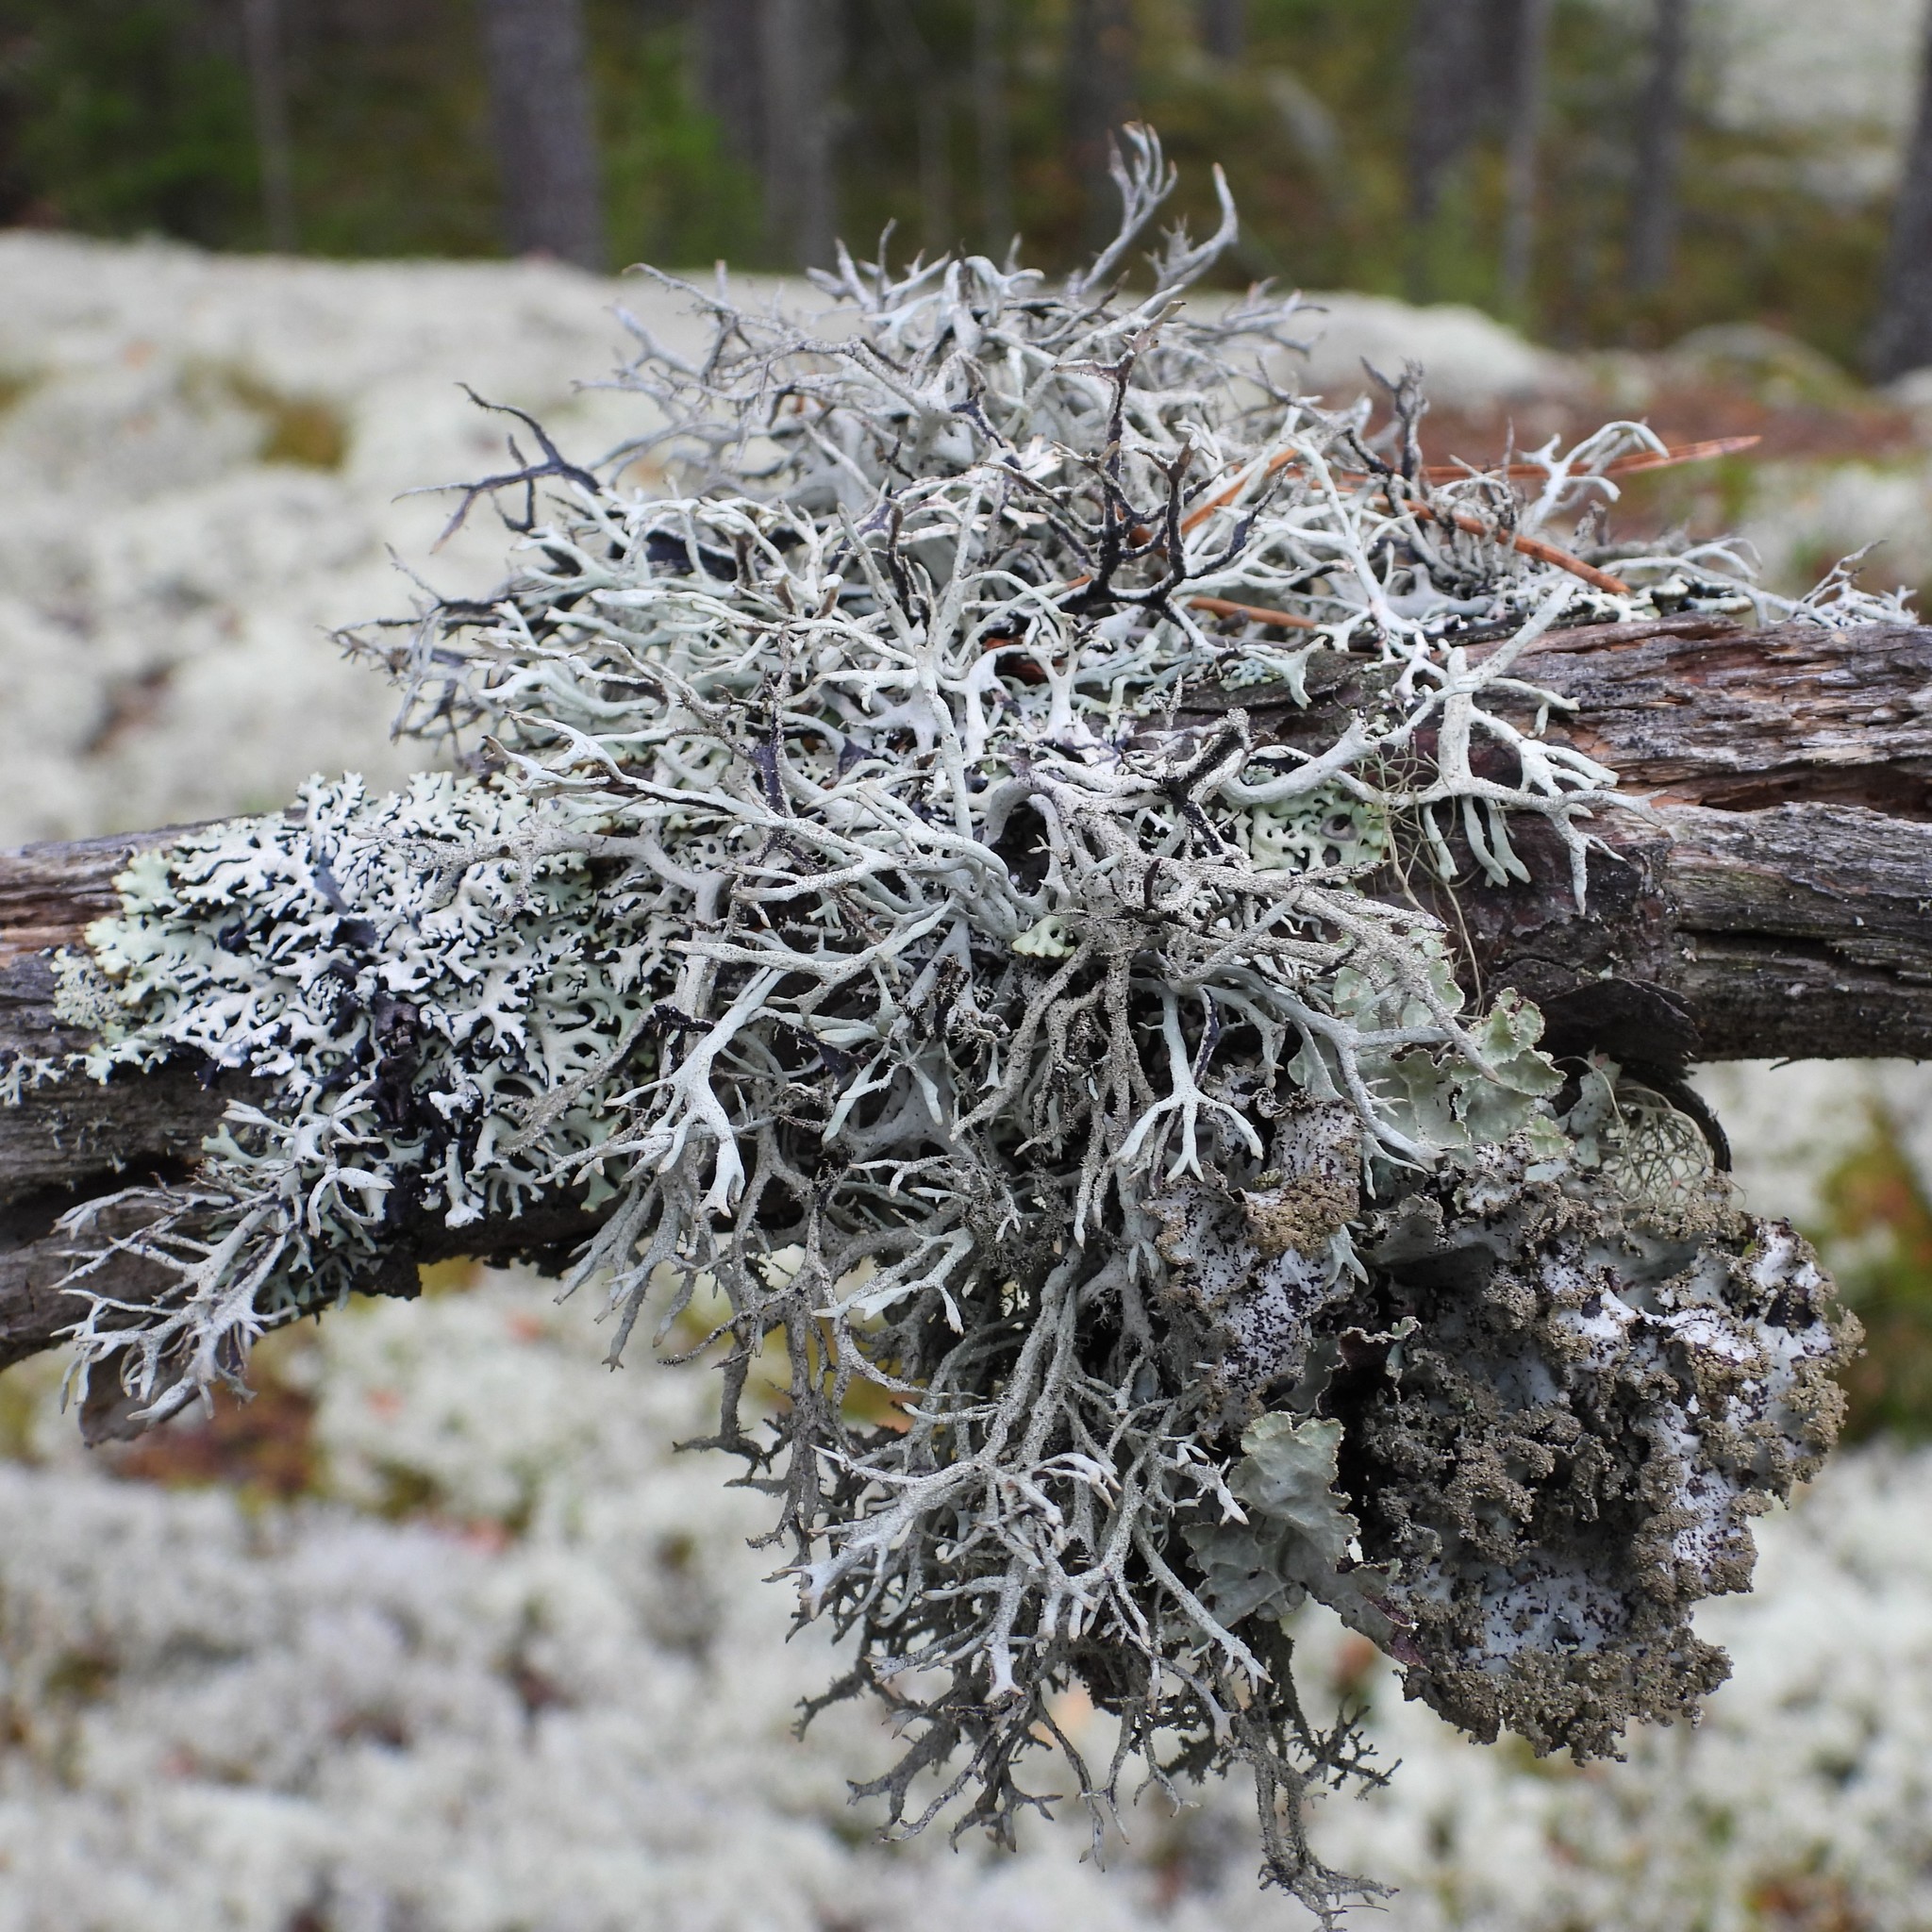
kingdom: Fungi
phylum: Ascomycota
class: Lecanoromycetes
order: Lecanorales
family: Parmeliaceae
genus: Pseudevernia
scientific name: Pseudevernia furfuracea
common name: Tree moss
